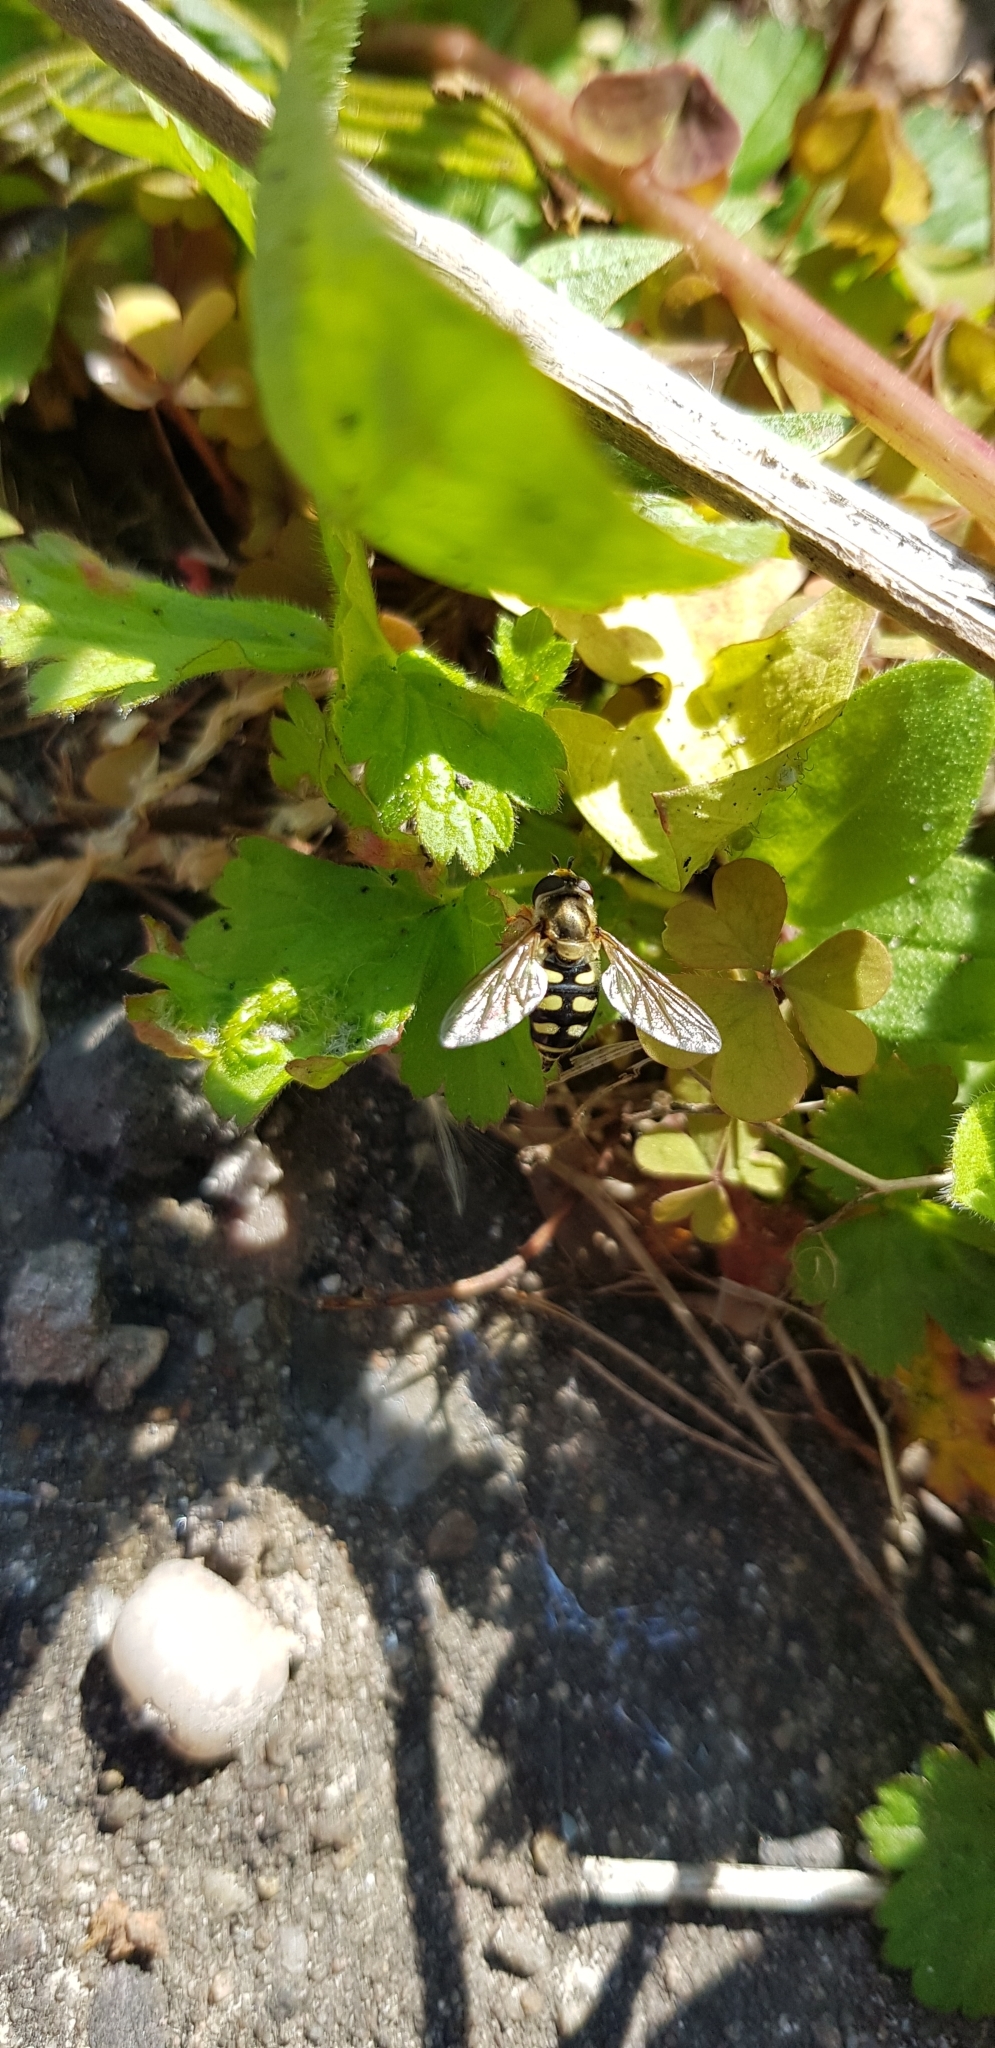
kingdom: Animalia
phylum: Arthropoda
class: Insecta
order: Diptera
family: Syrphidae
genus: Eupeodes
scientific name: Eupeodes corollae
